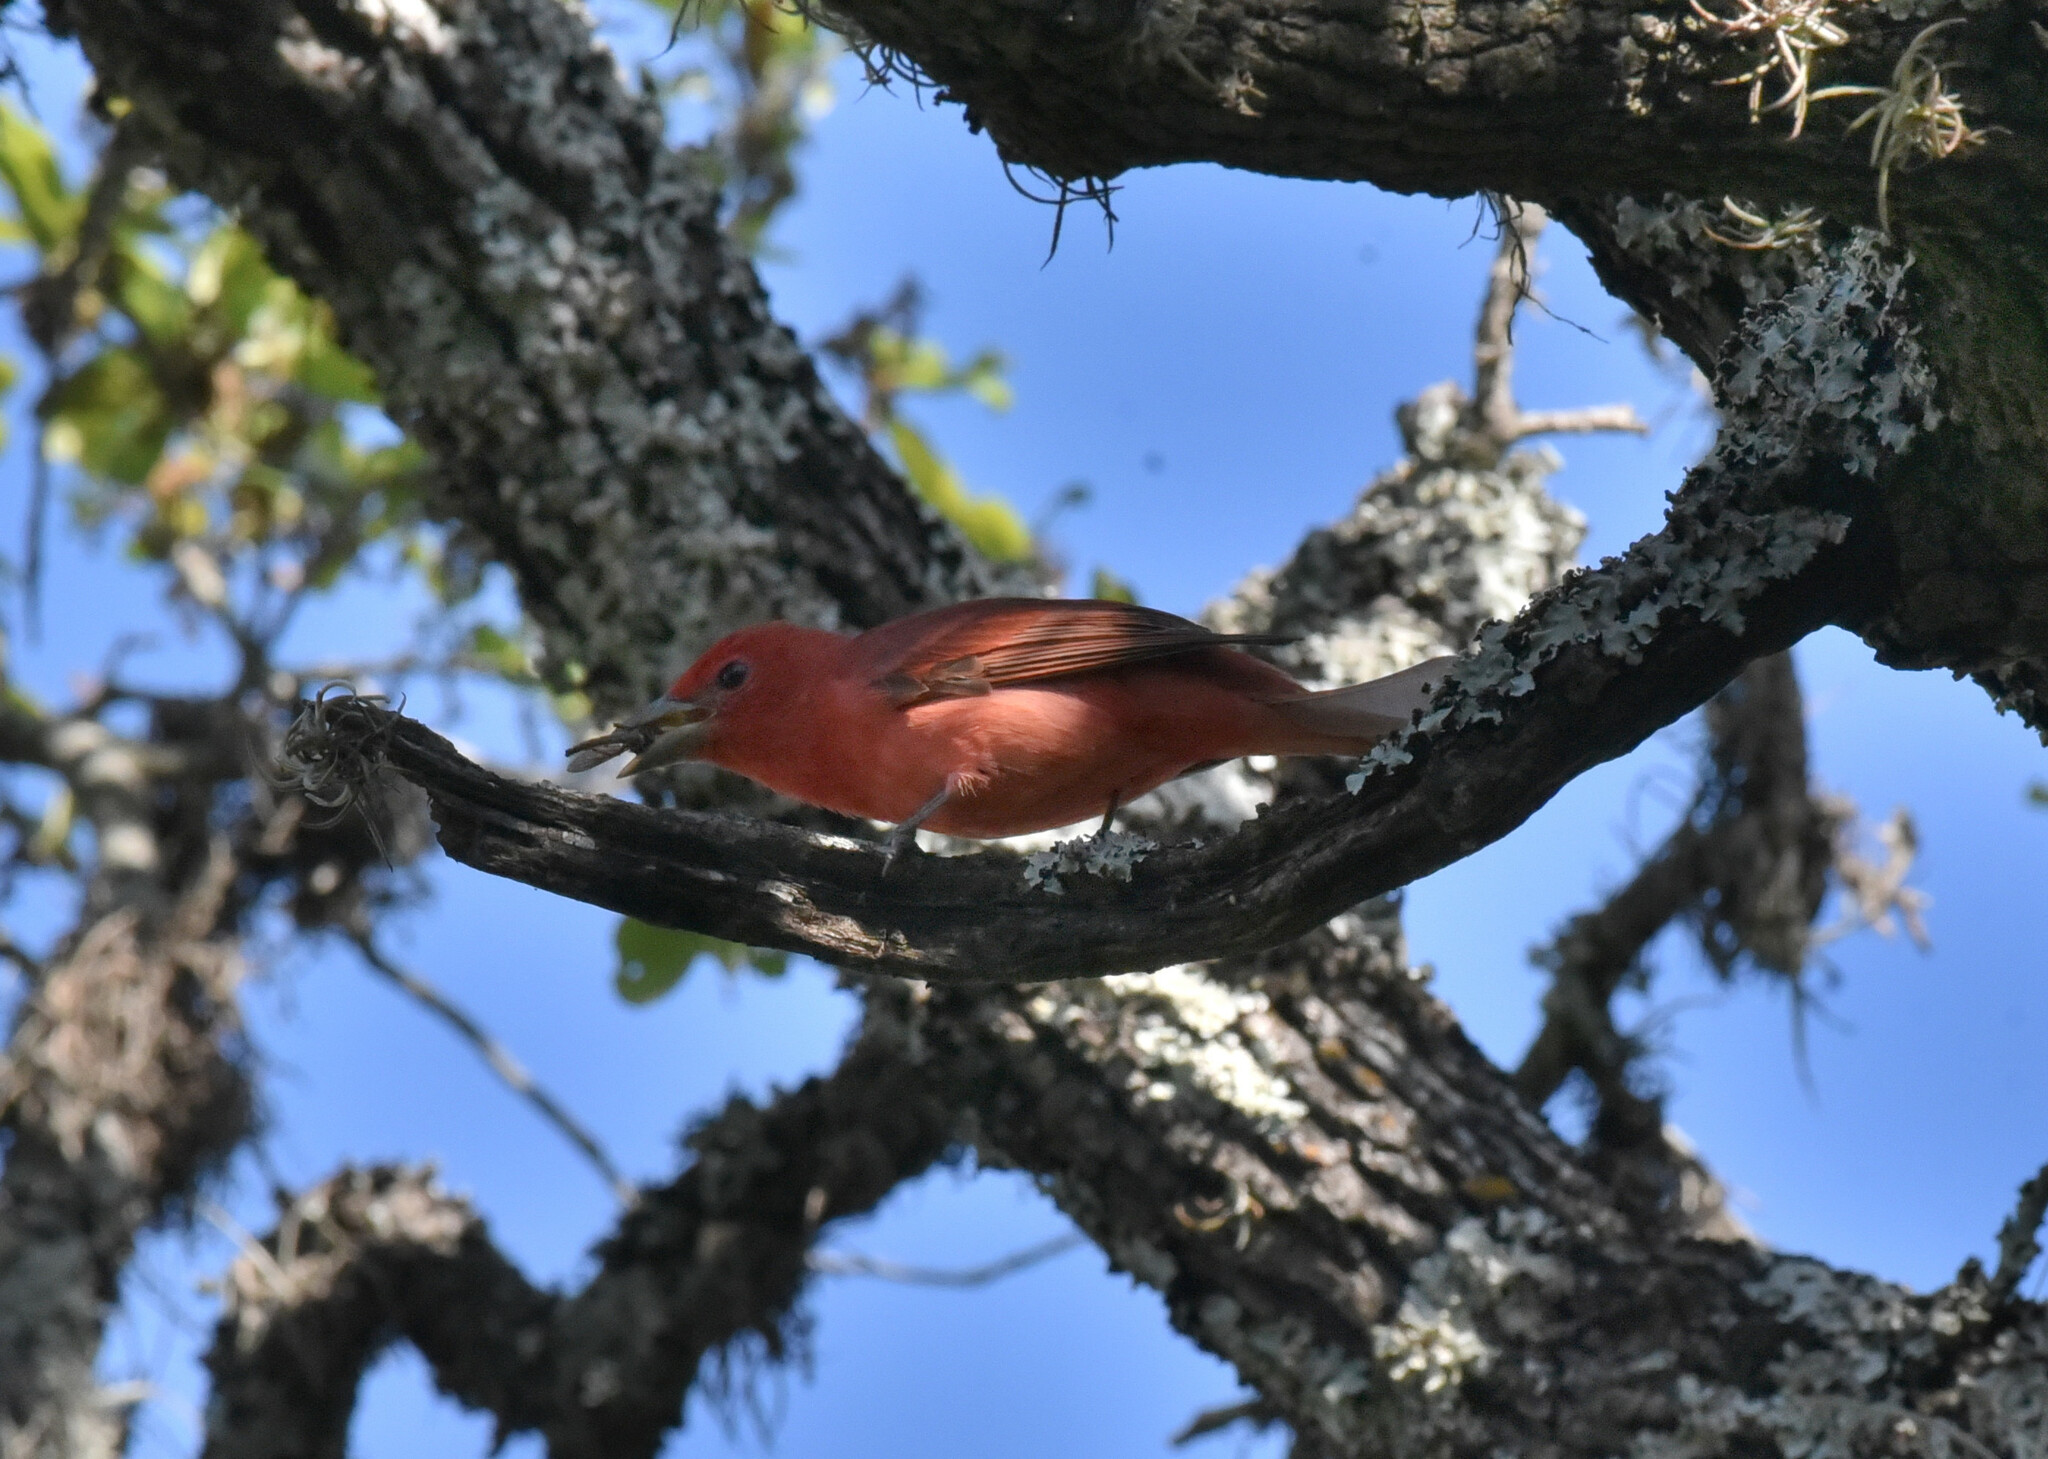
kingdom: Animalia
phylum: Chordata
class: Aves
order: Passeriformes
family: Cardinalidae
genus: Piranga
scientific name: Piranga rubra
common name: Summer tanager
